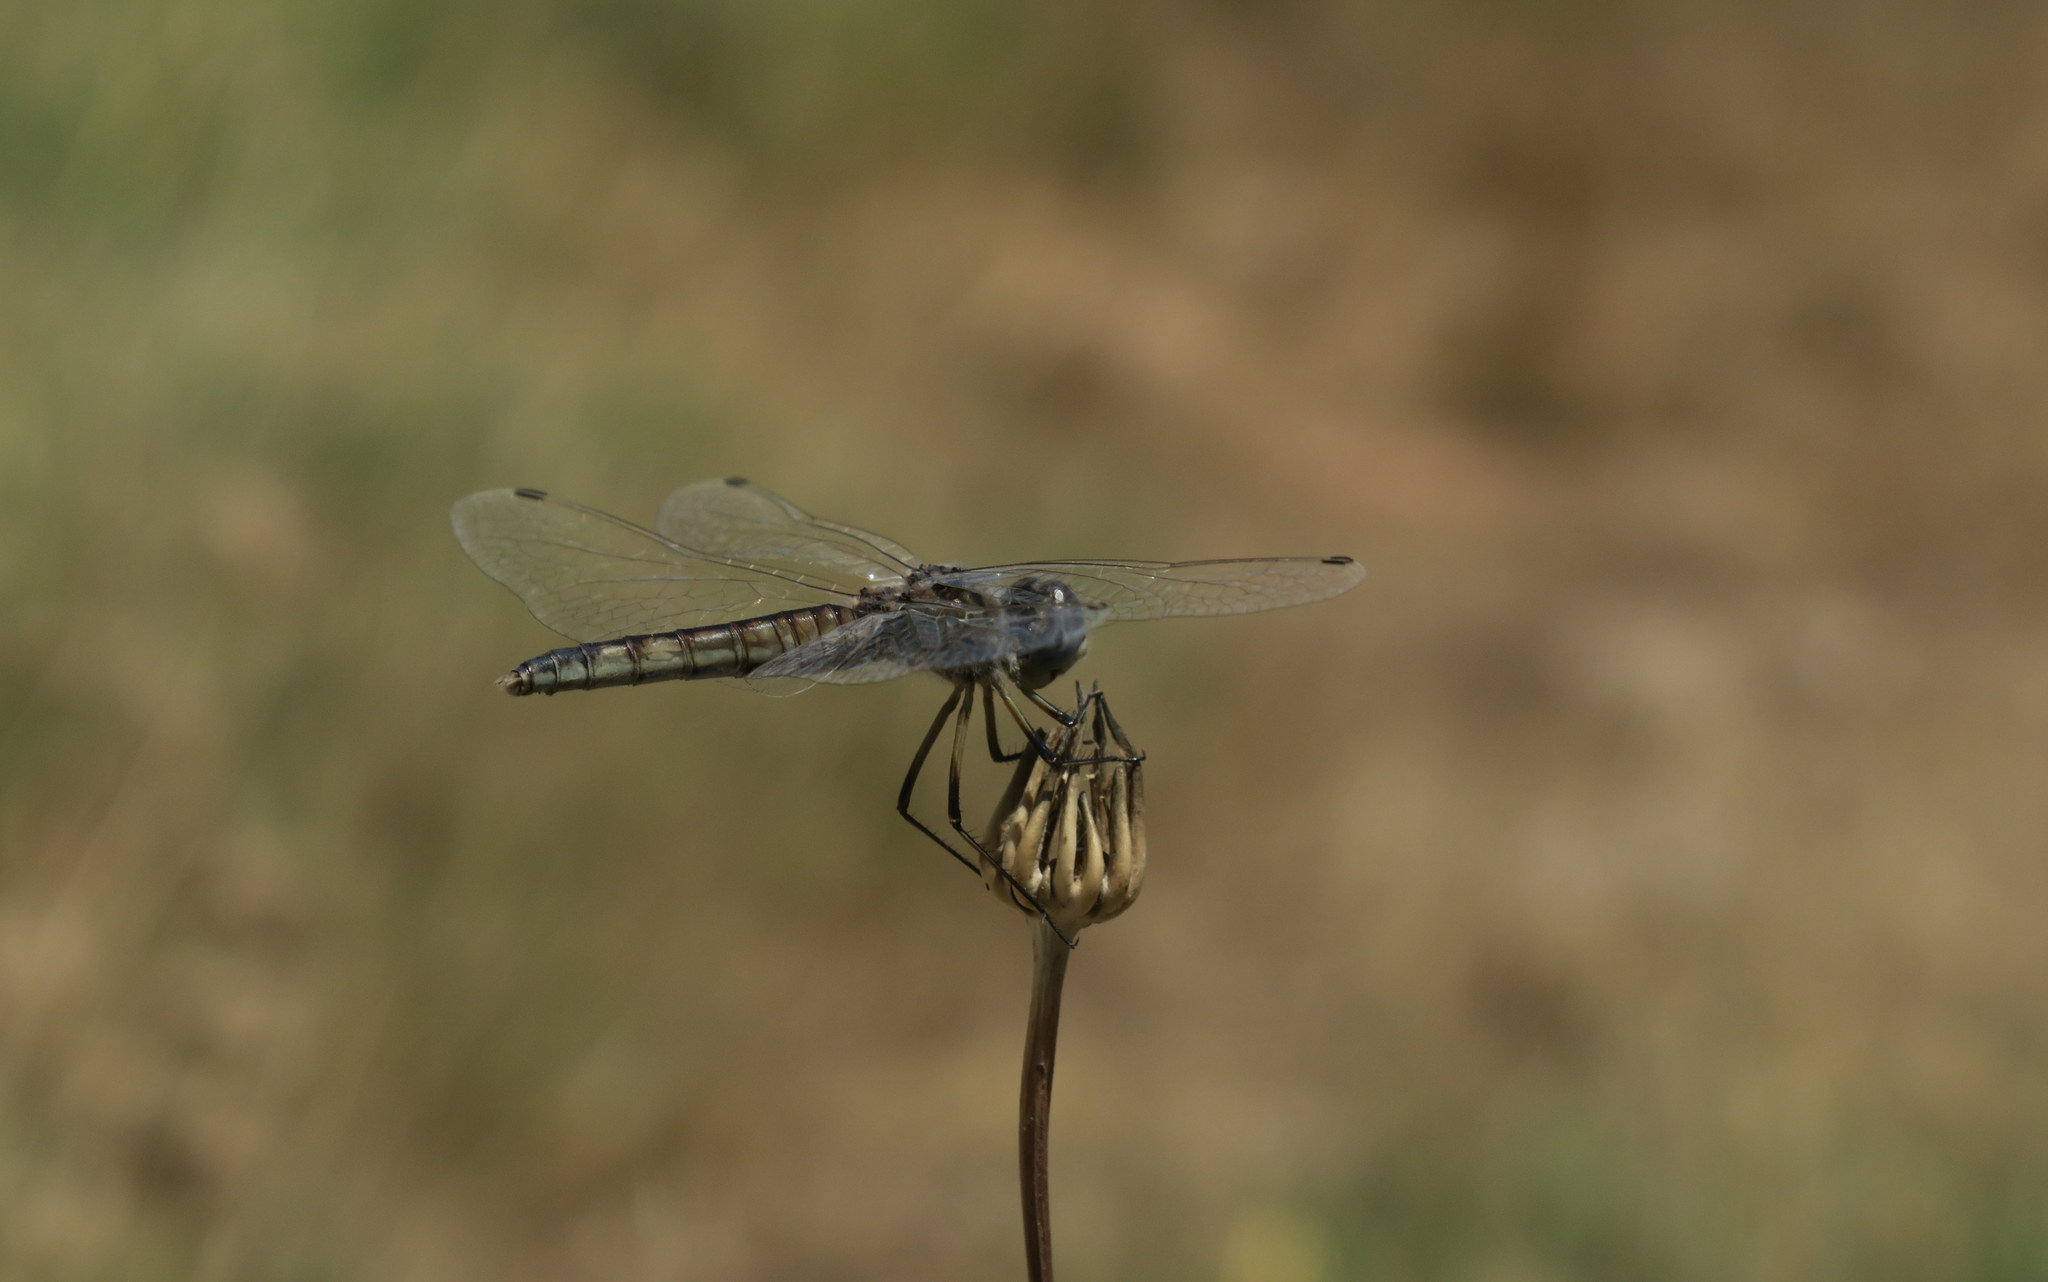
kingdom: Animalia
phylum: Arthropoda
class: Insecta
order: Odonata
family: Libellulidae
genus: Selysiothemis
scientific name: Selysiothemis nigra
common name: Black pennant
